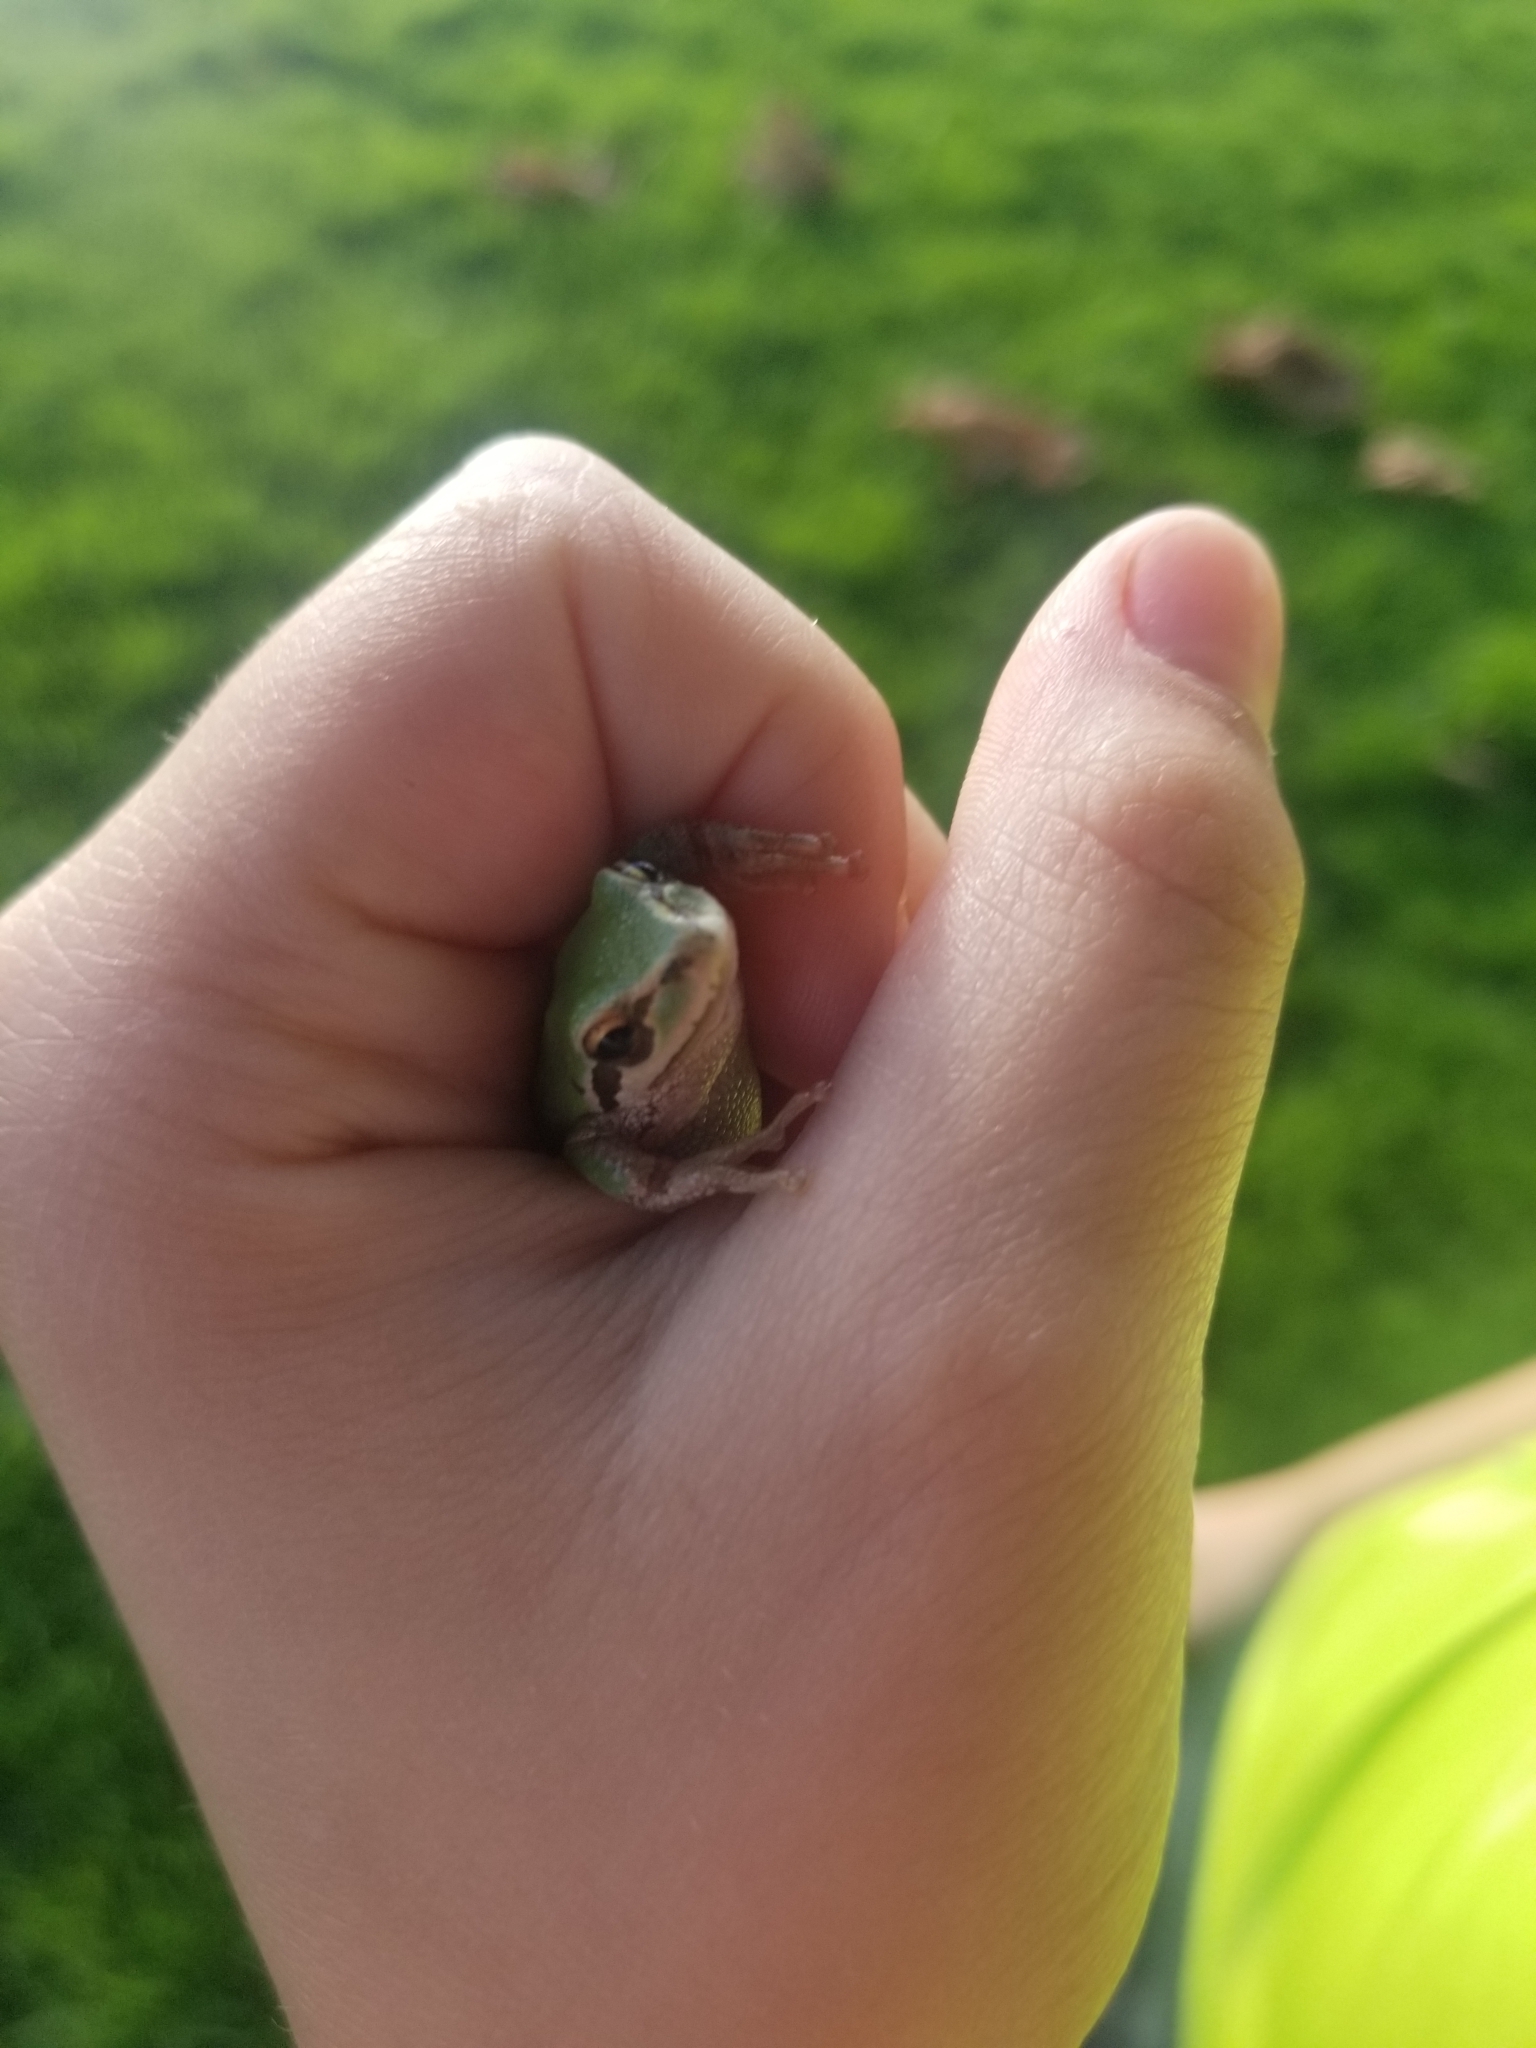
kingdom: Animalia
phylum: Chordata
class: Amphibia
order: Anura
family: Hylidae
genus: Pseudacris
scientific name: Pseudacris regilla
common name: Pacific chorus frog
